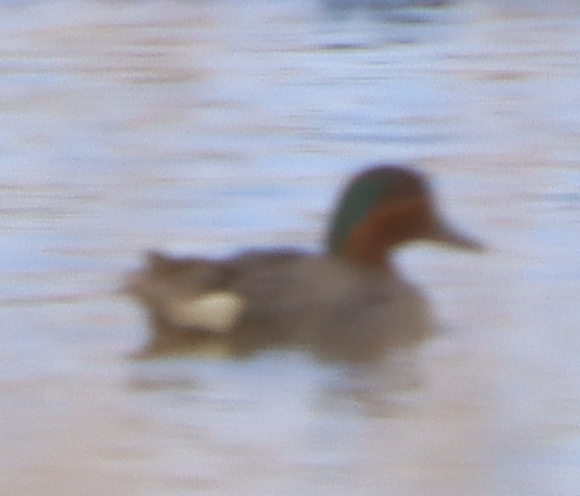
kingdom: Animalia
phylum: Chordata
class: Aves
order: Anseriformes
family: Anatidae
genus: Anas
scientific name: Anas crecca
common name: Eurasian teal
